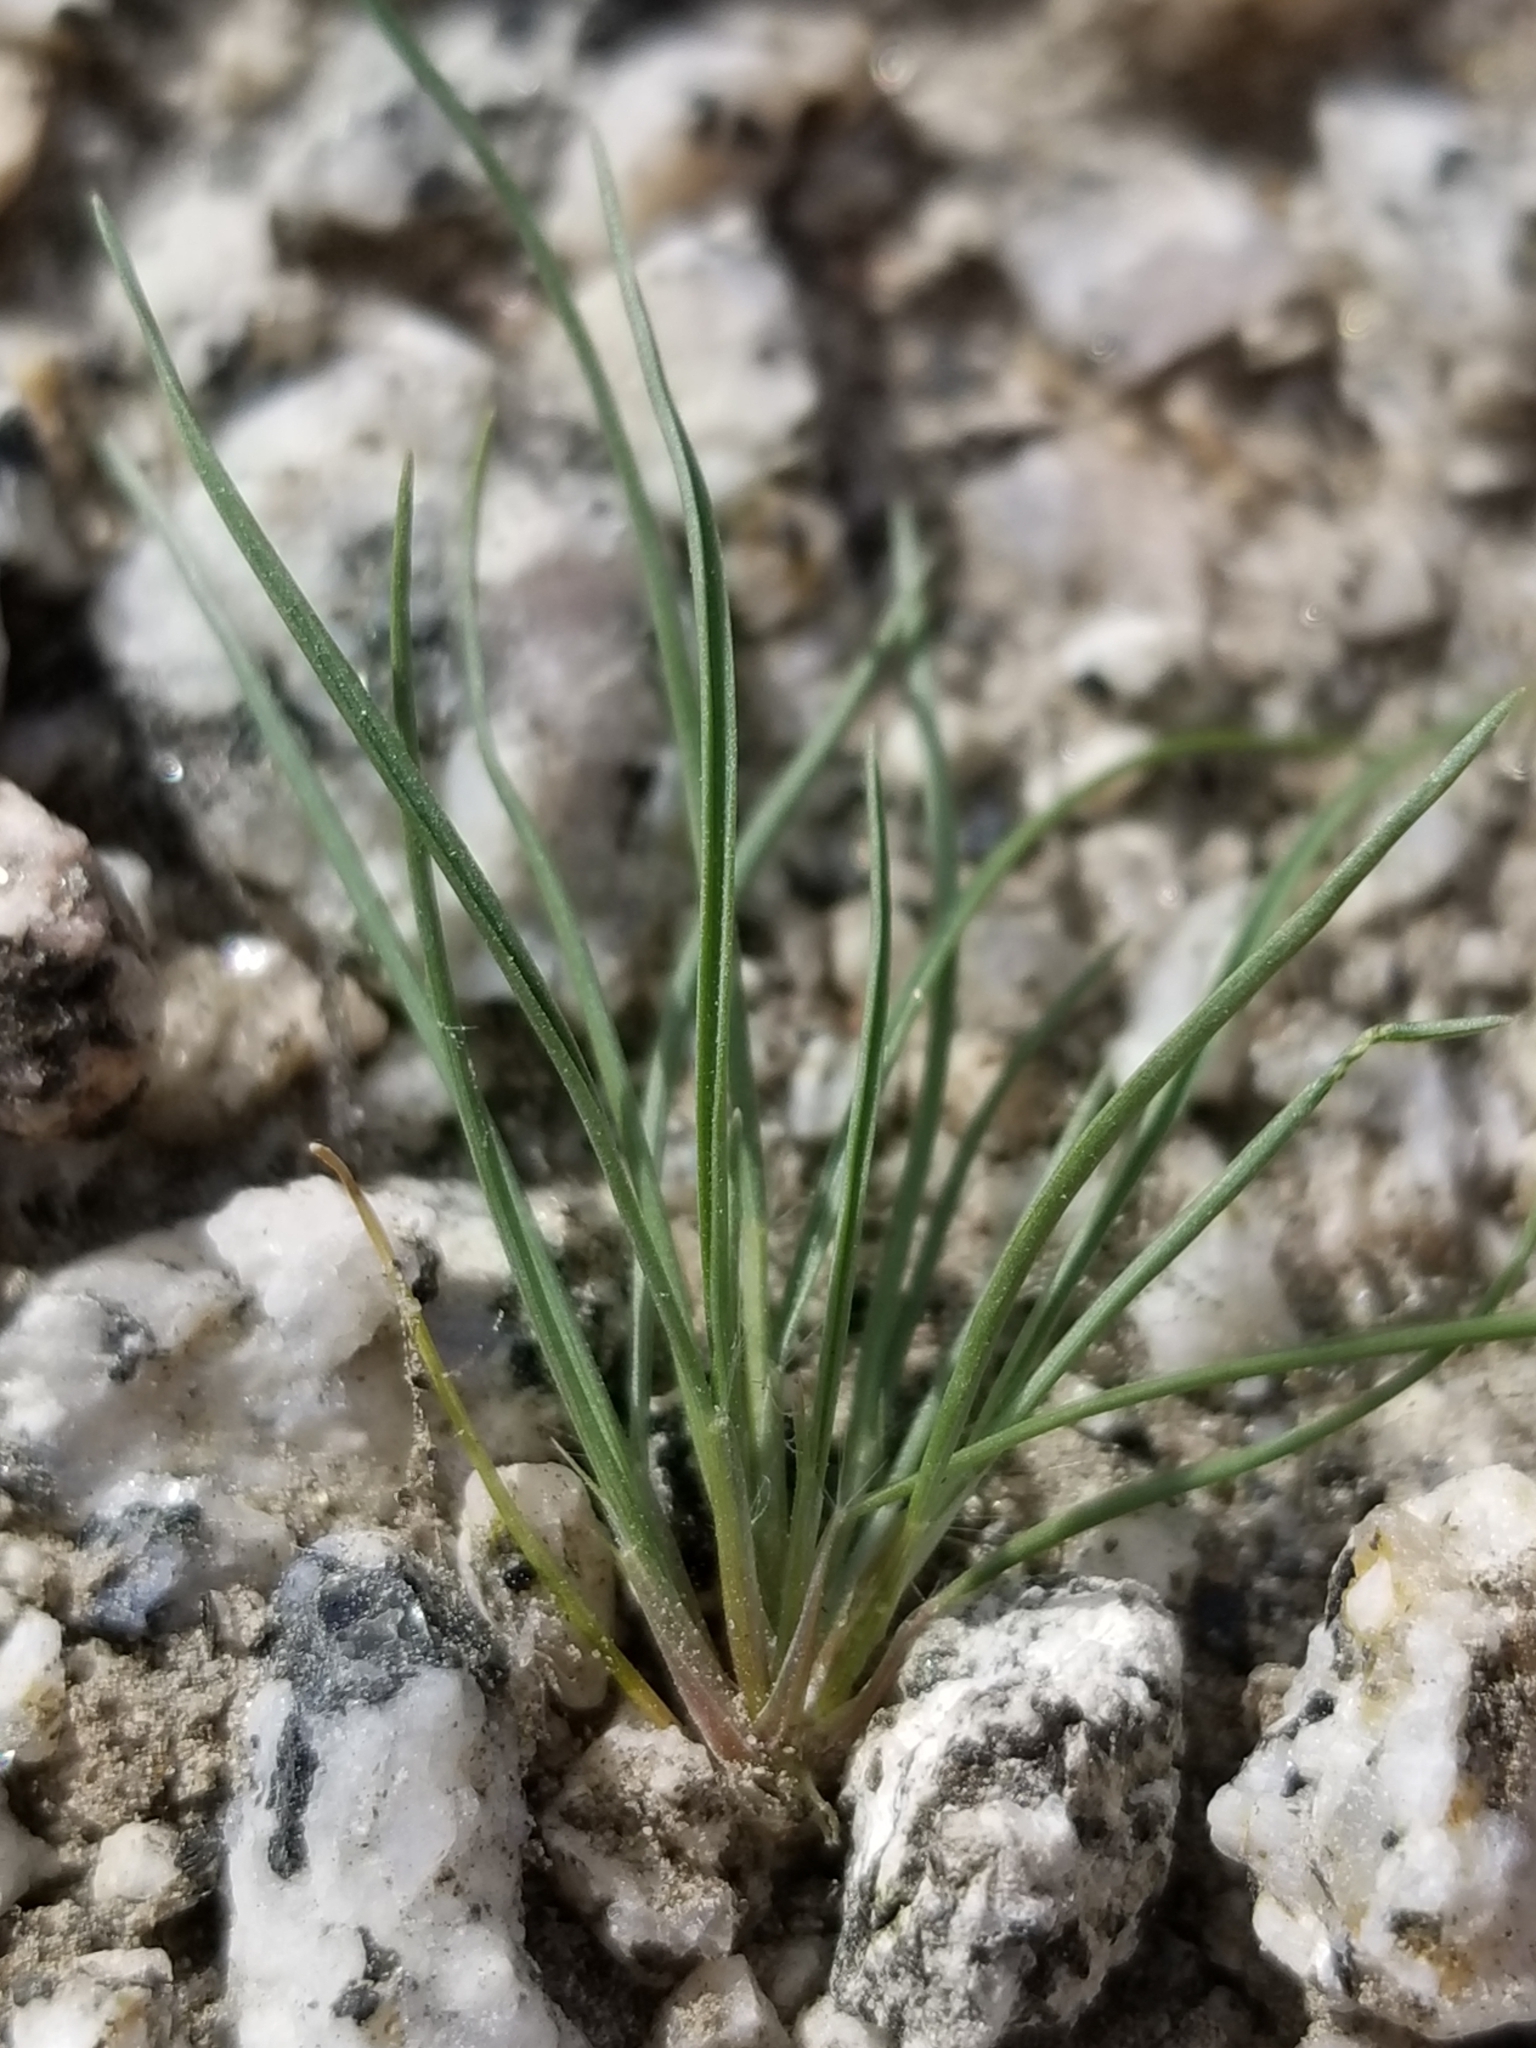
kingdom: Plantae
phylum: Tracheophyta
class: Liliopsida
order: Poales
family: Poaceae
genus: Schismus
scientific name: Schismus barbatus
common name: Kelch-grass
